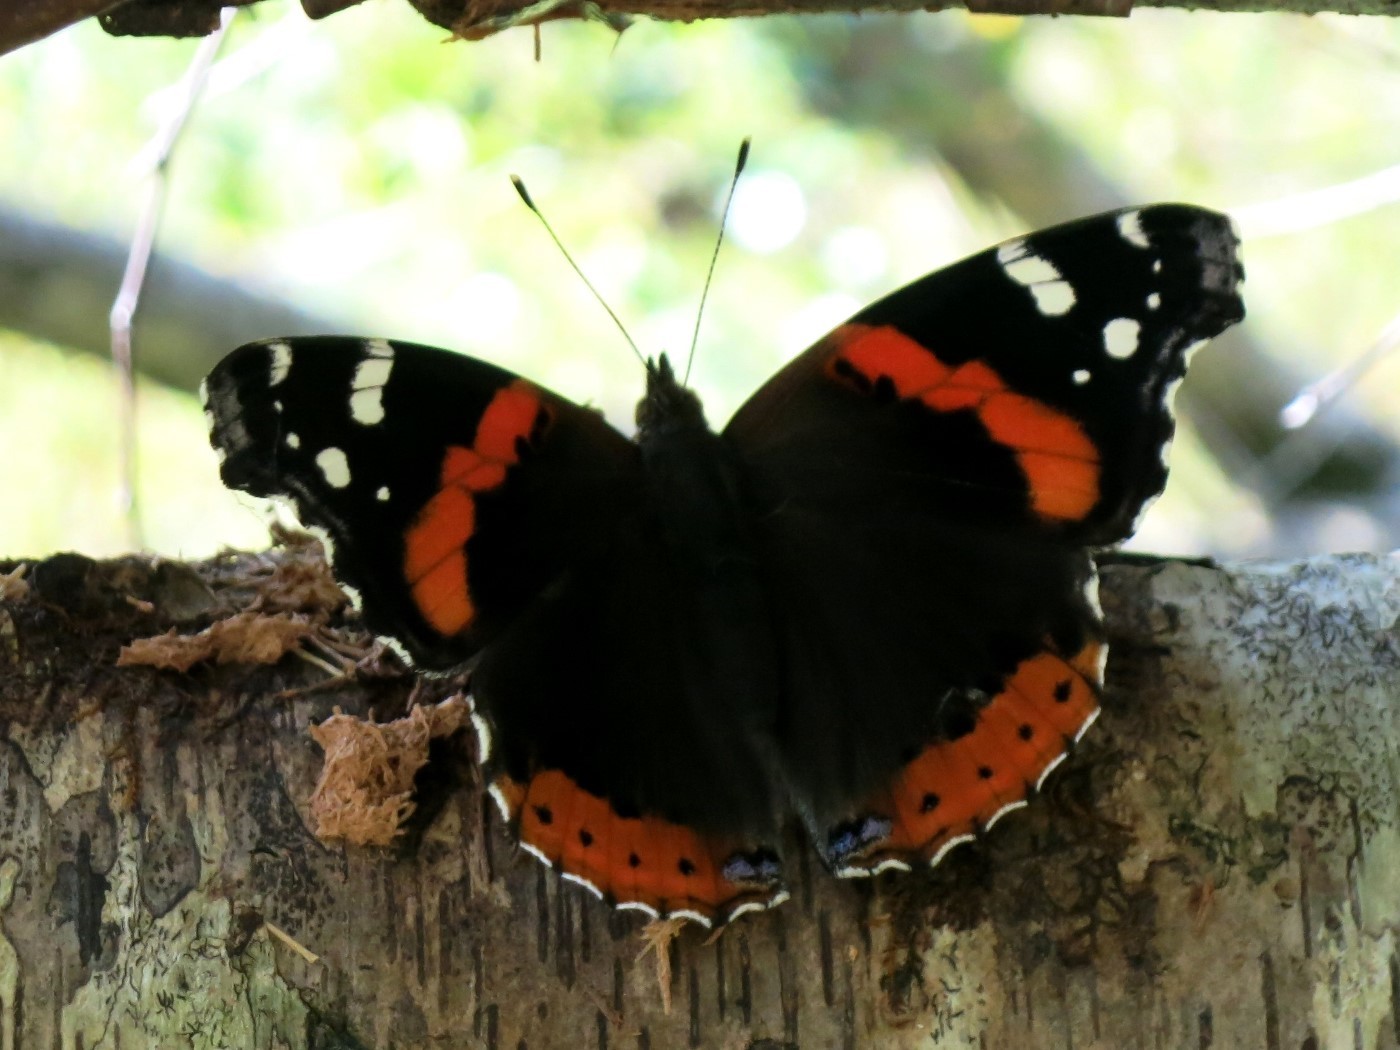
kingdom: Animalia
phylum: Arthropoda
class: Insecta
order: Lepidoptera
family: Nymphalidae
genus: Vanessa
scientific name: Vanessa atalanta
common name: Red admiral
